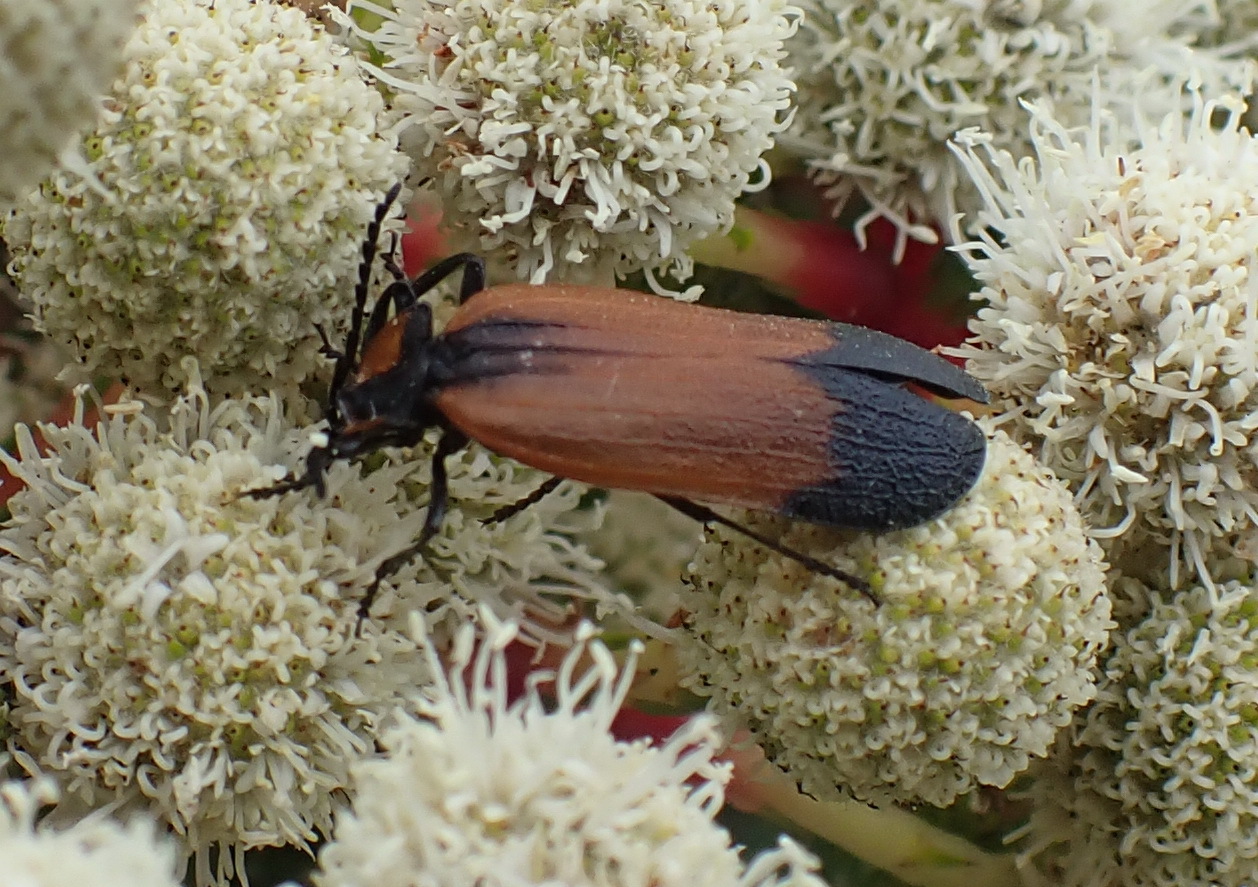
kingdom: Animalia
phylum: Arthropoda
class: Insecta
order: Coleoptera
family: Lycidae
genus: Lycus
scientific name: Lycus
